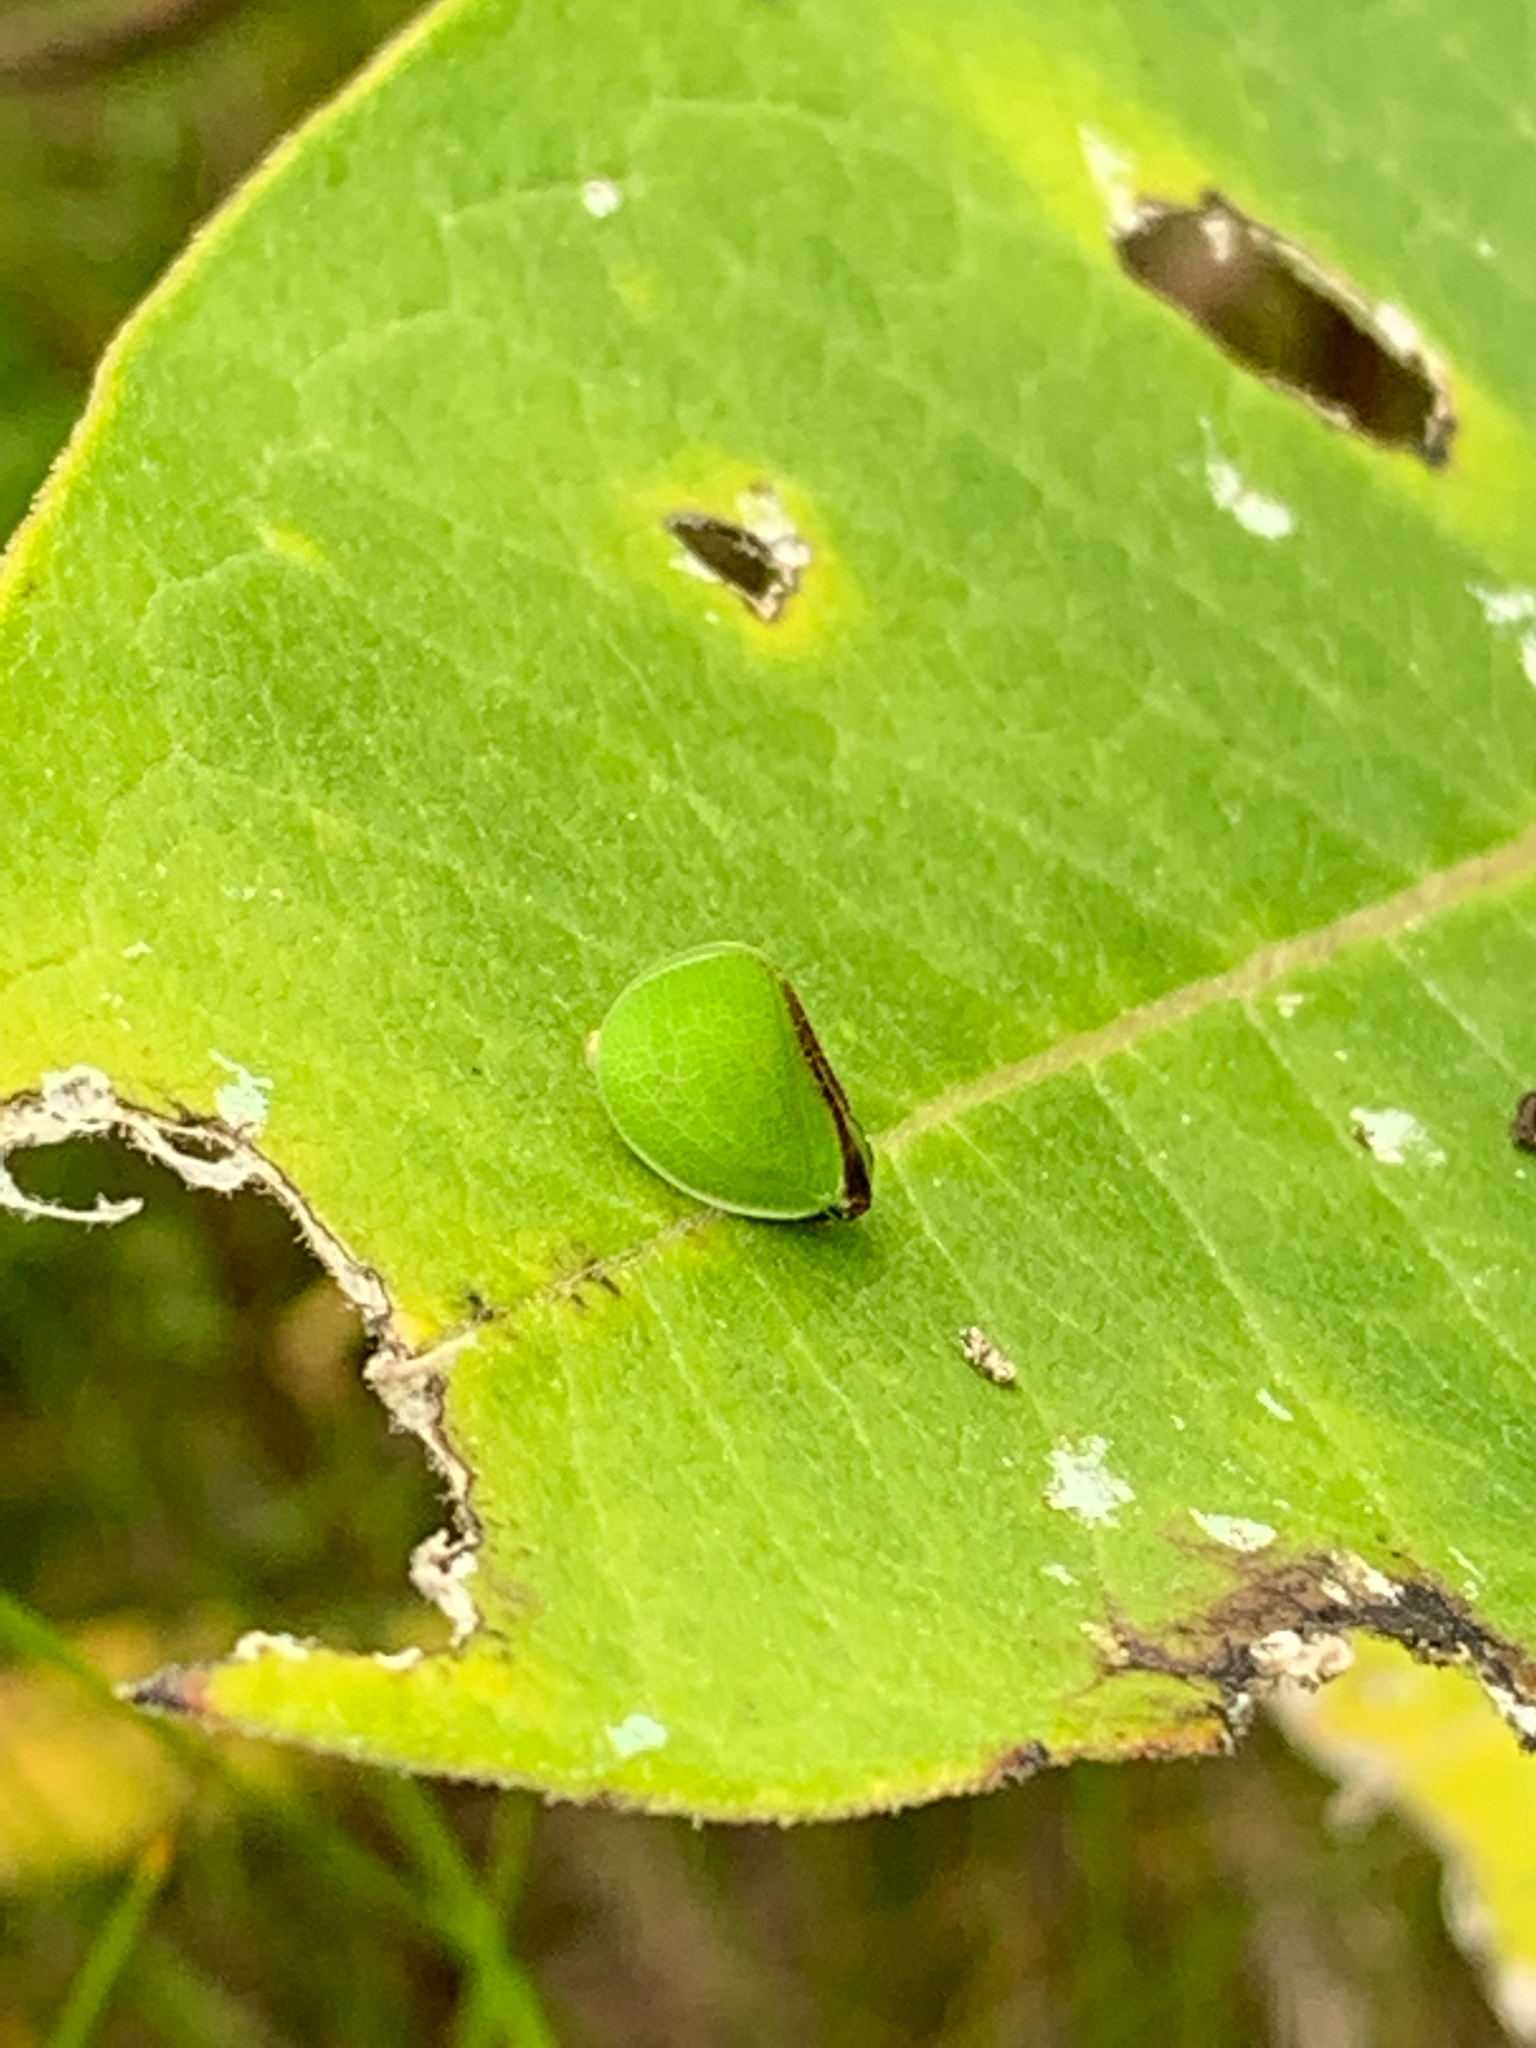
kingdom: Animalia
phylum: Arthropoda
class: Insecta
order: Hemiptera
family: Acanaloniidae
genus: Acanalonia
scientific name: Acanalonia bivittata
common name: Two-striped planthopper
